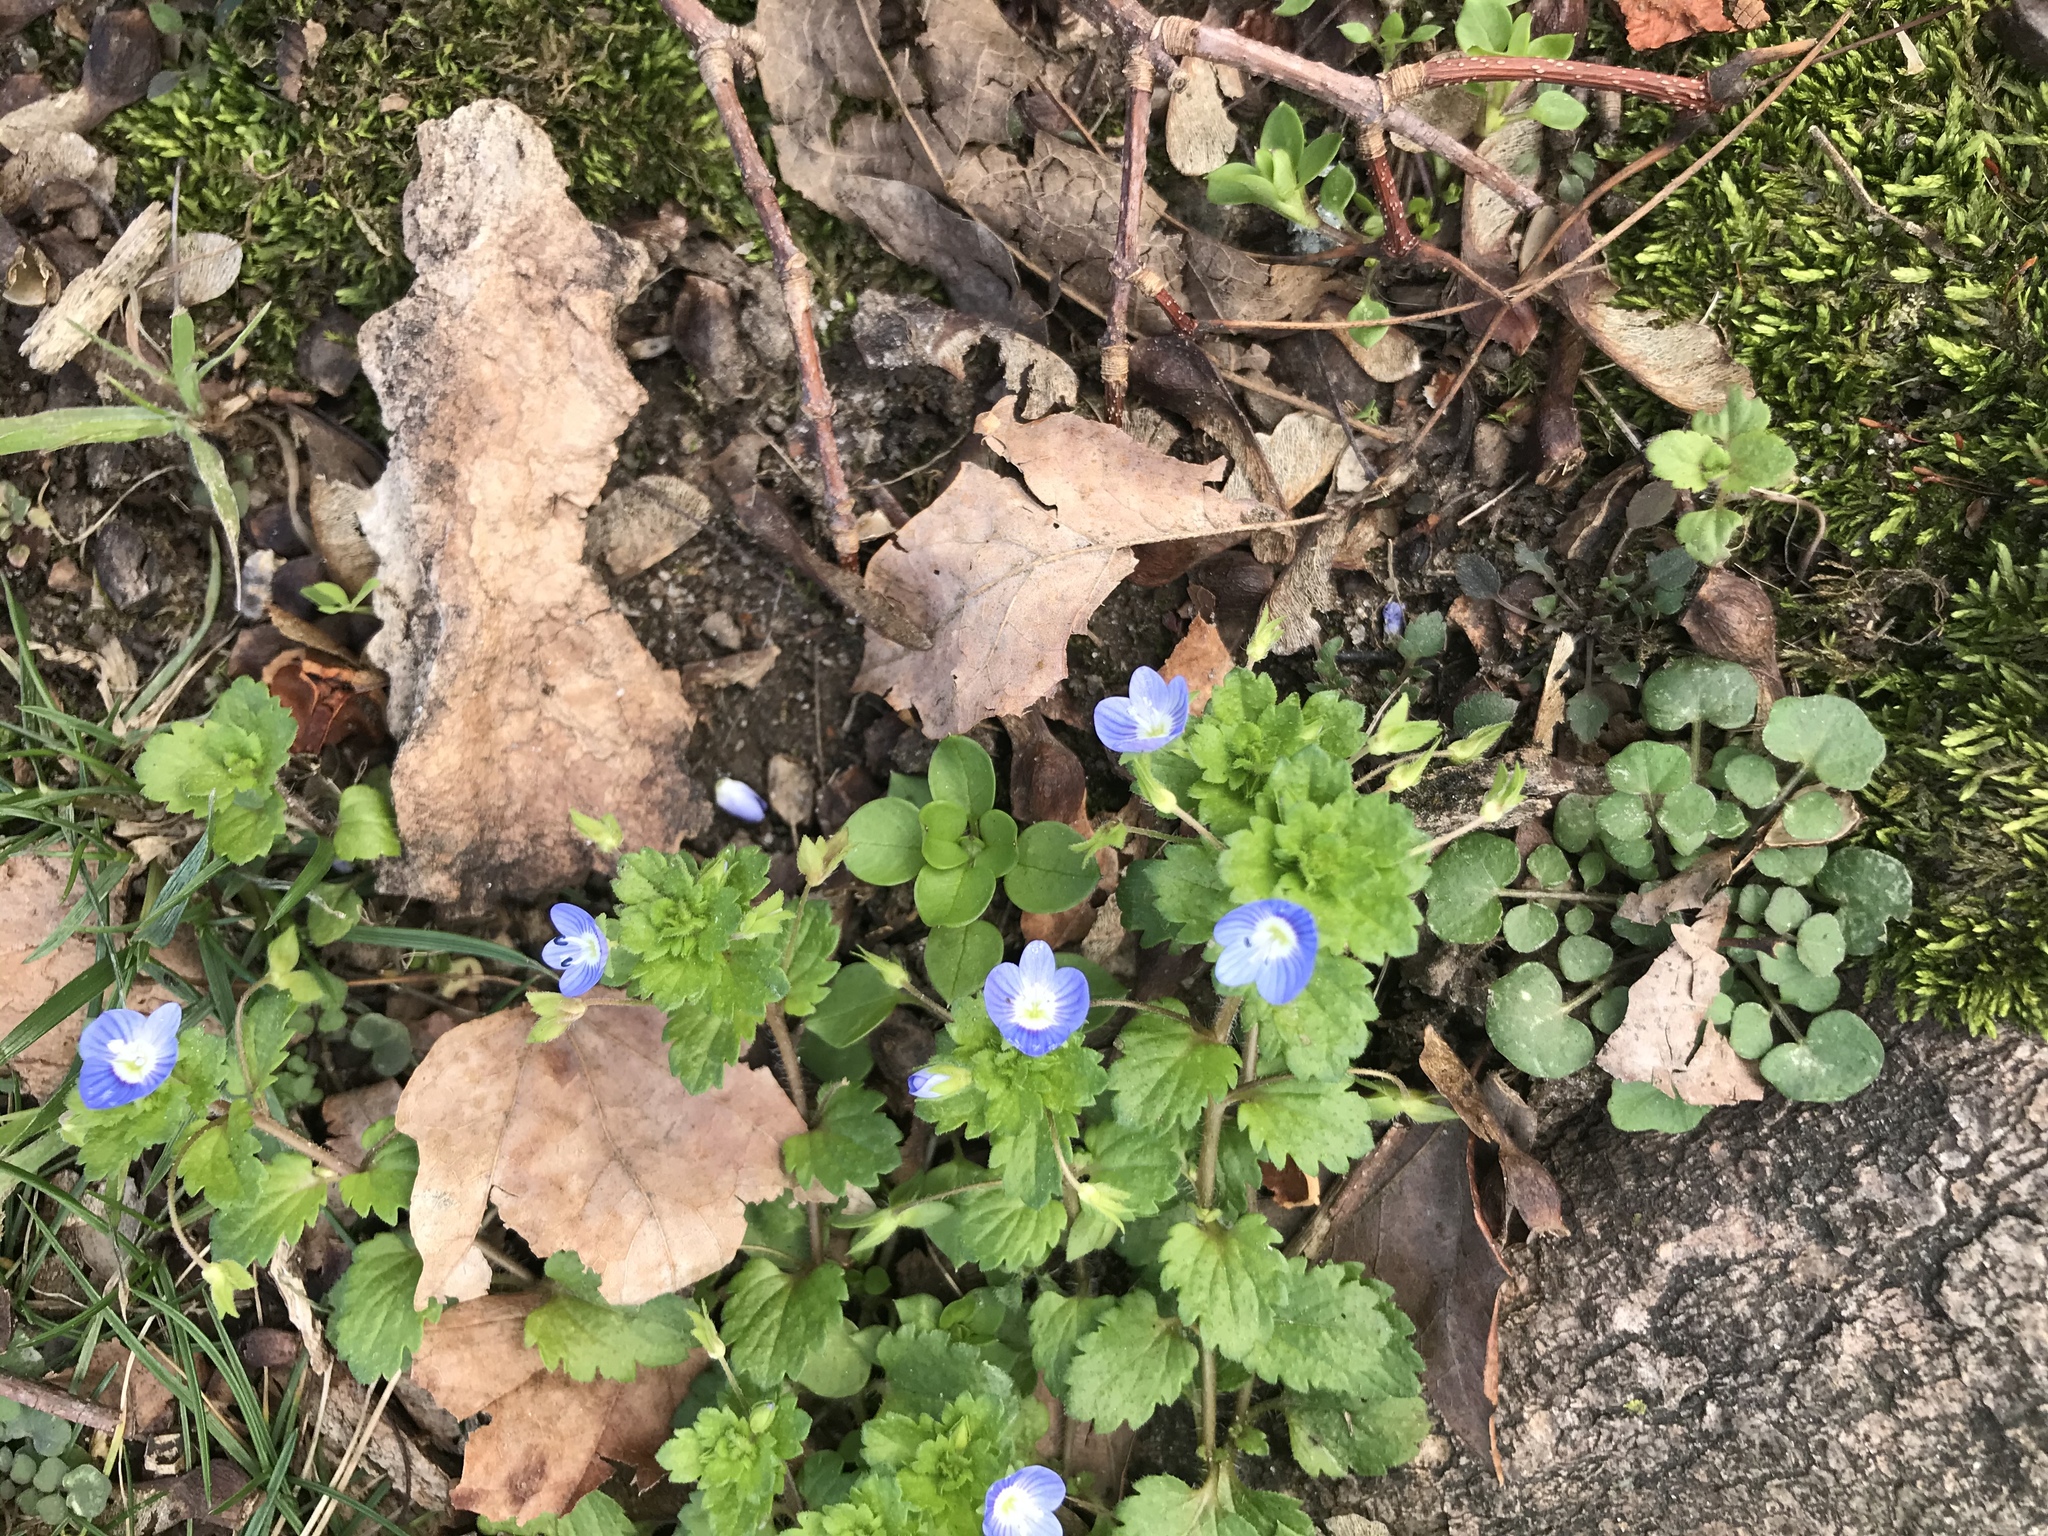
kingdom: Plantae
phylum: Tracheophyta
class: Magnoliopsida
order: Lamiales
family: Plantaginaceae
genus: Veronica
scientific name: Veronica persica
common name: Common field-speedwell
